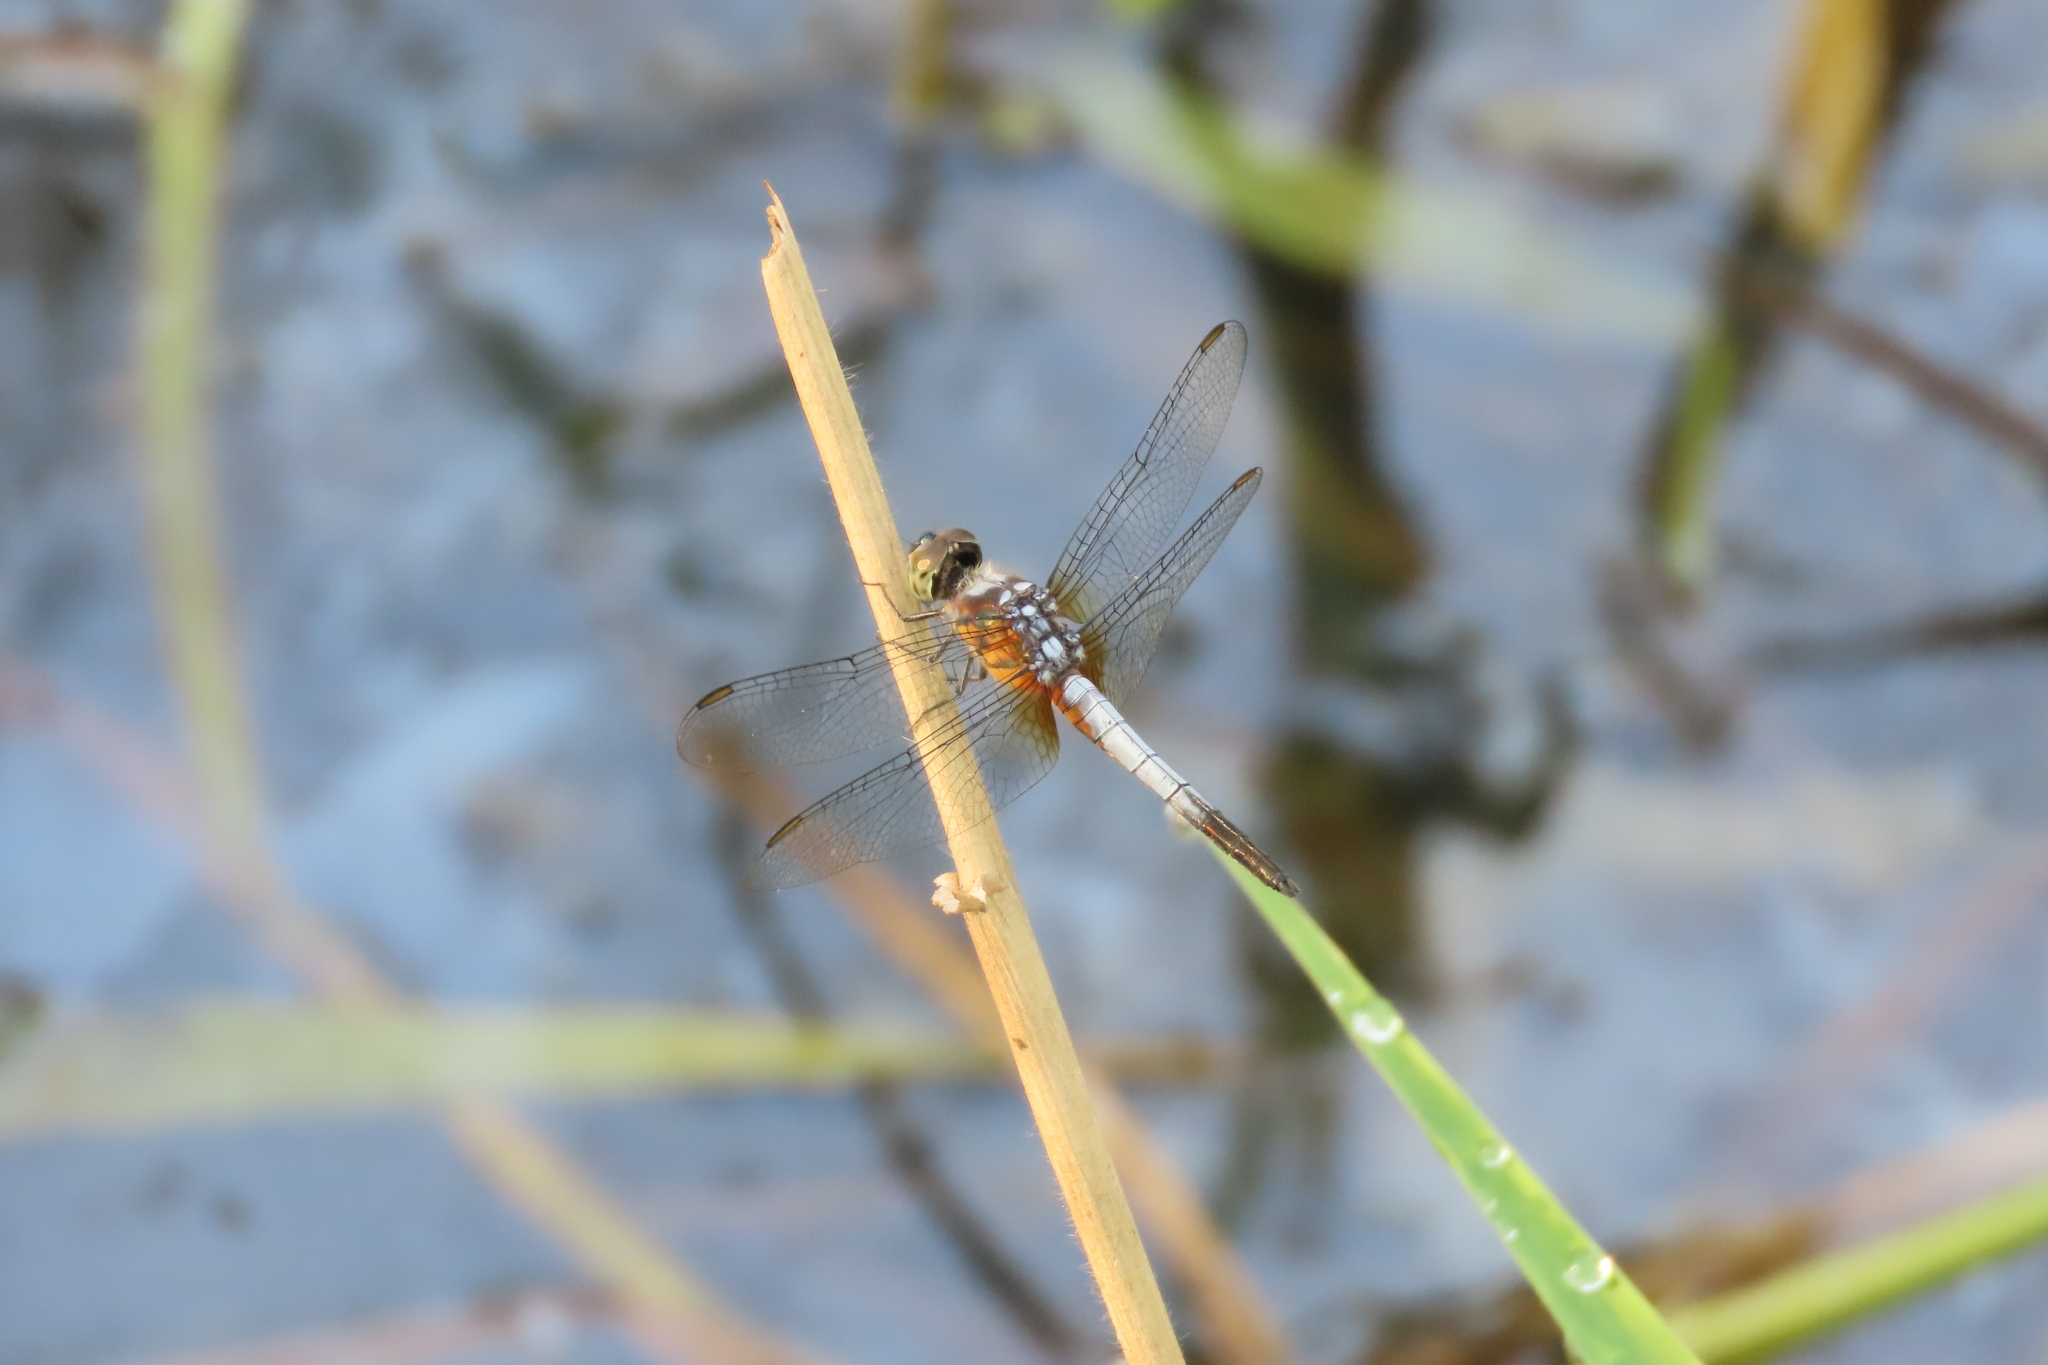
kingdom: Animalia
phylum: Arthropoda
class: Insecta
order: Odonata
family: Libellulidae
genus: Brachydiplax
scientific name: Brachydiplax chalybea
